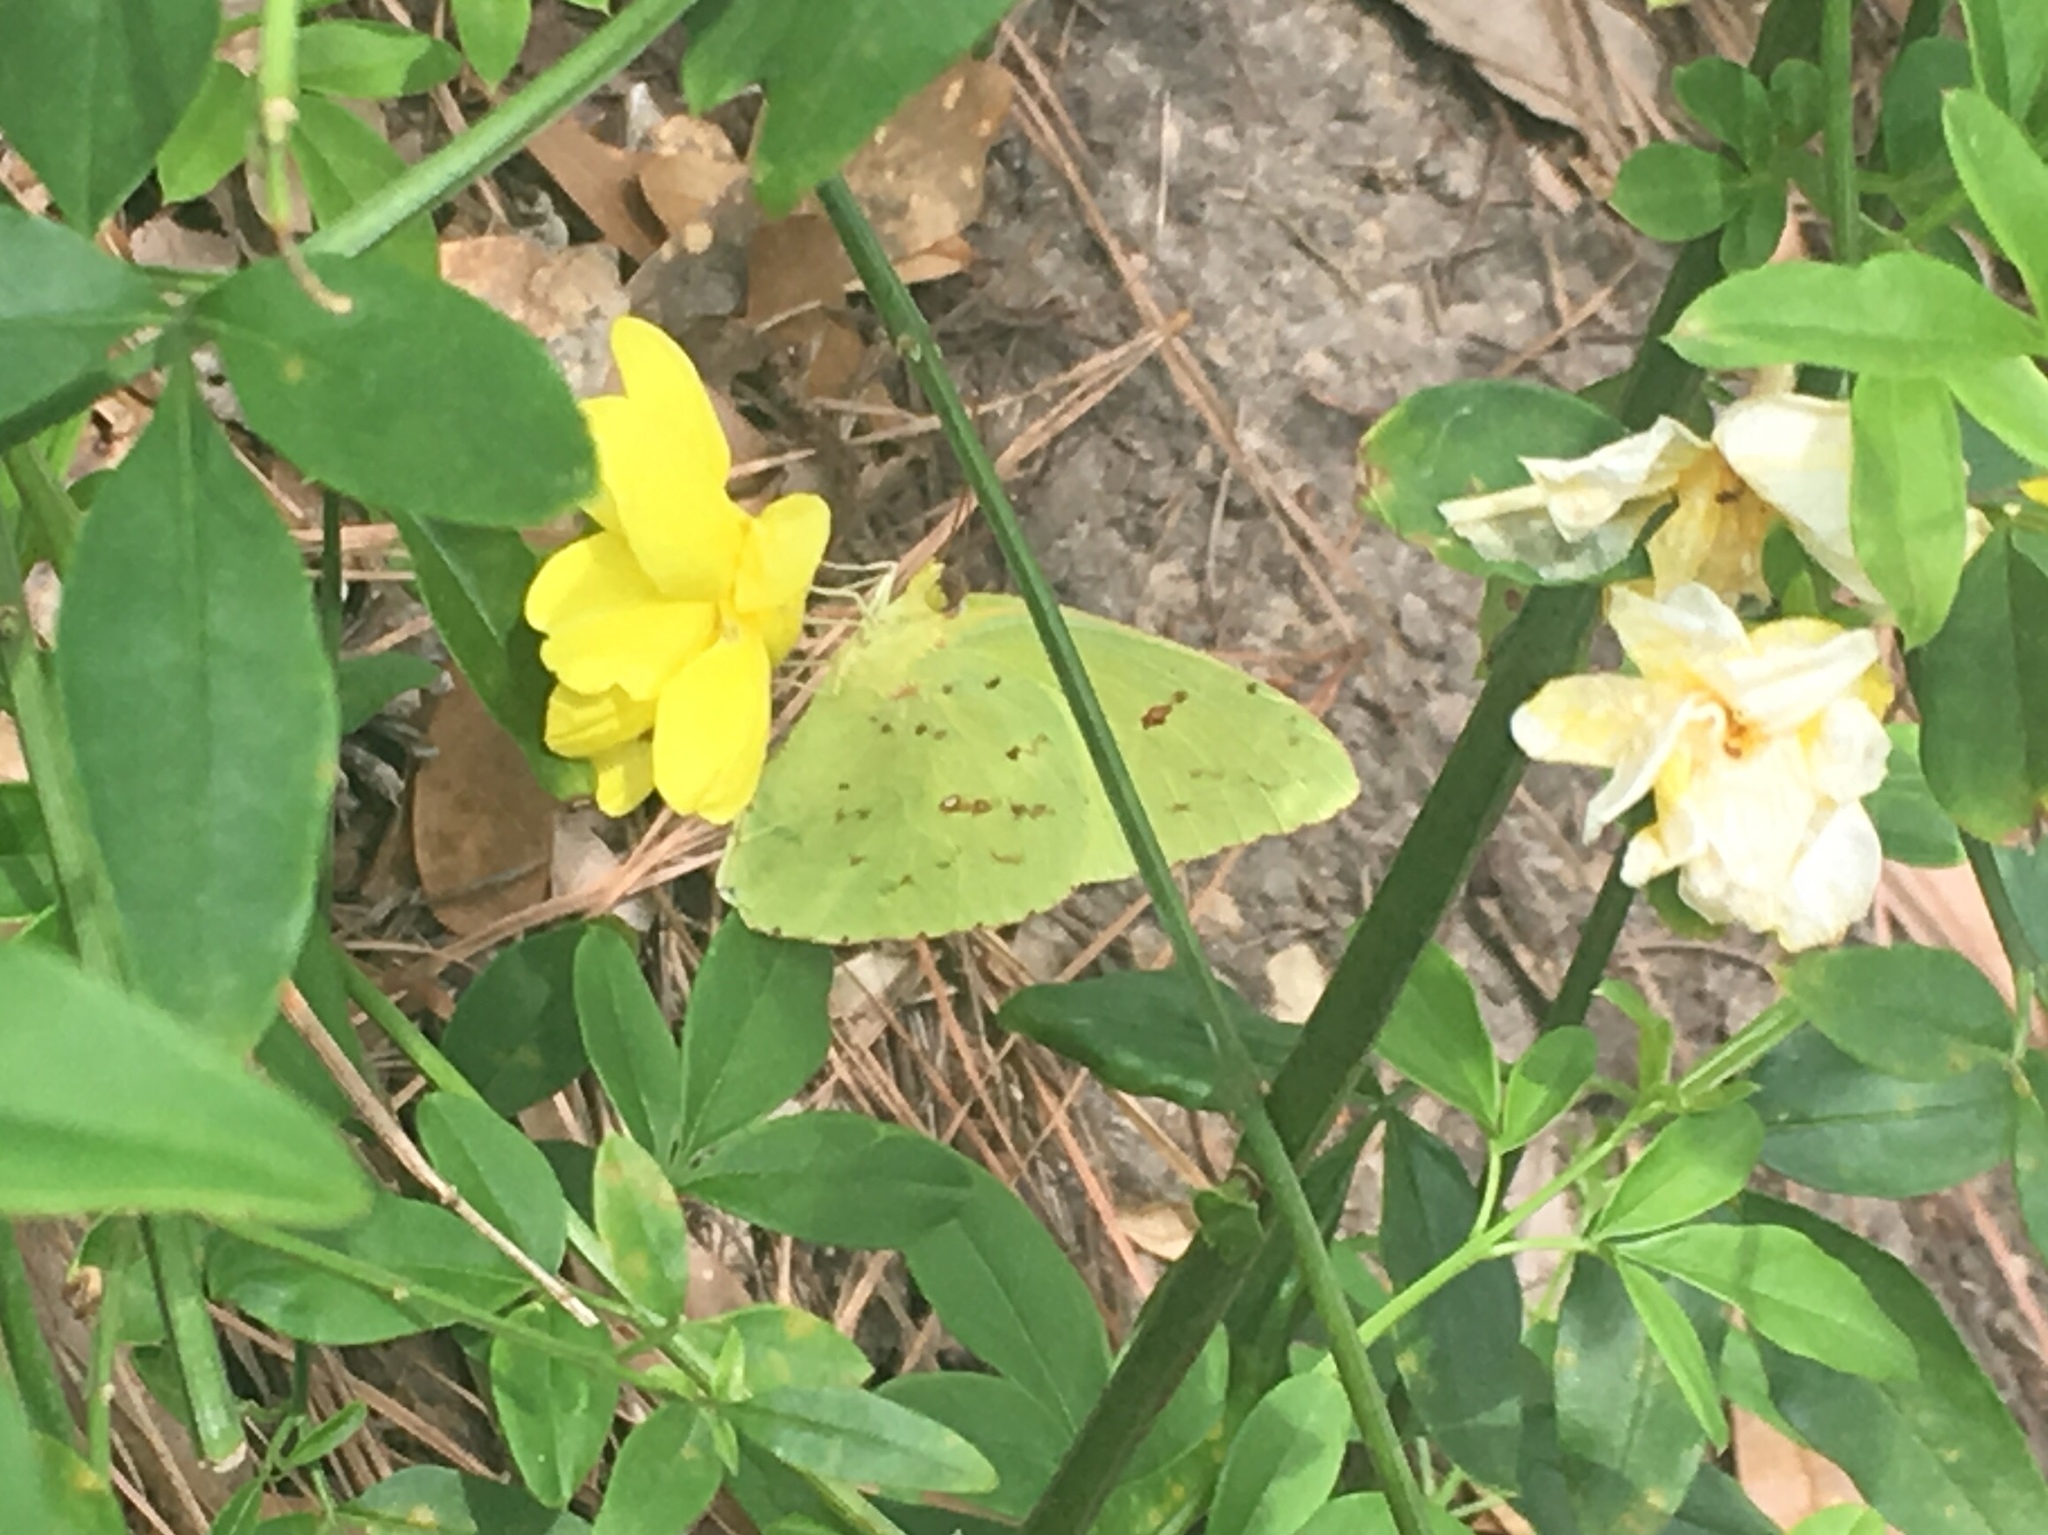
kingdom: Animalia
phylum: Arthropoda
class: Insecta
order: Lepidoptera
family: Pieridae
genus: Phoebis
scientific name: Phoebis sennae
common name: Cloudless sulphur
